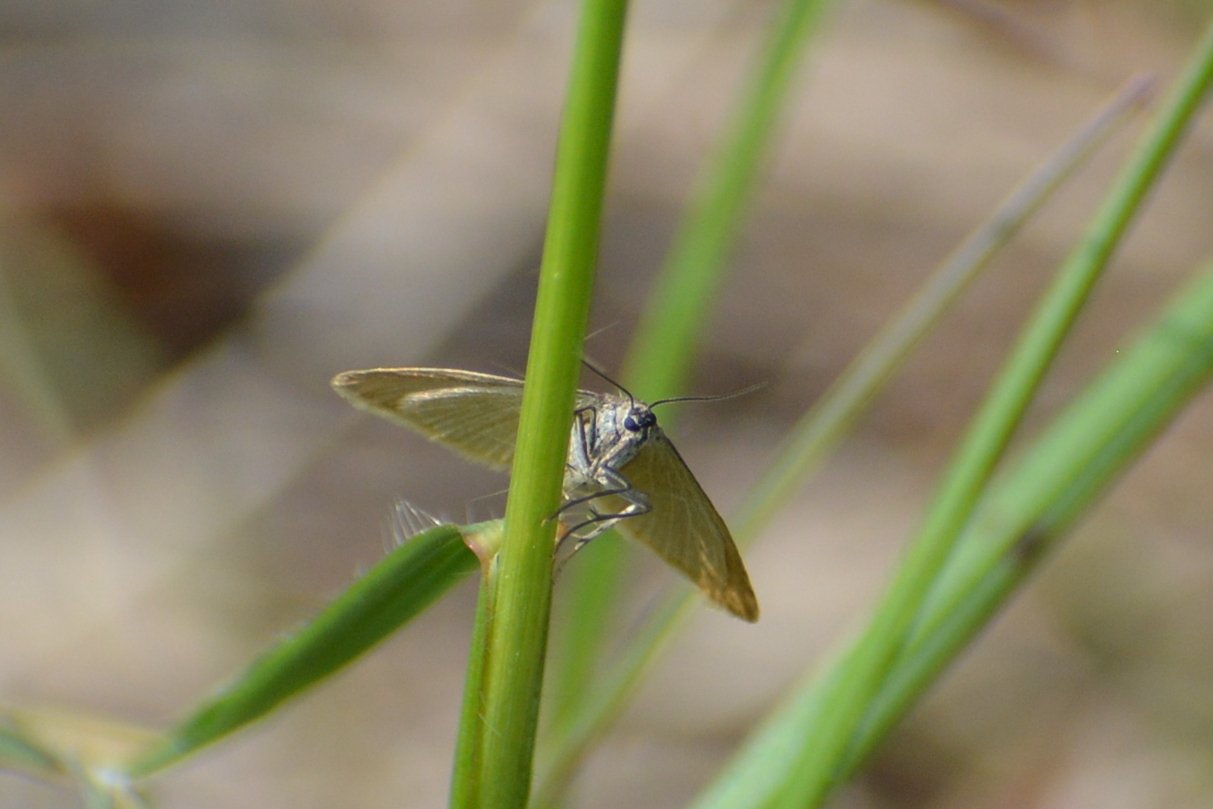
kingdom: Animalia
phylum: Arthropoda
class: Insecta
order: Lepidoptera
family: Geometridae
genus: Minoa
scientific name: Minoa murinata
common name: Drab looper
